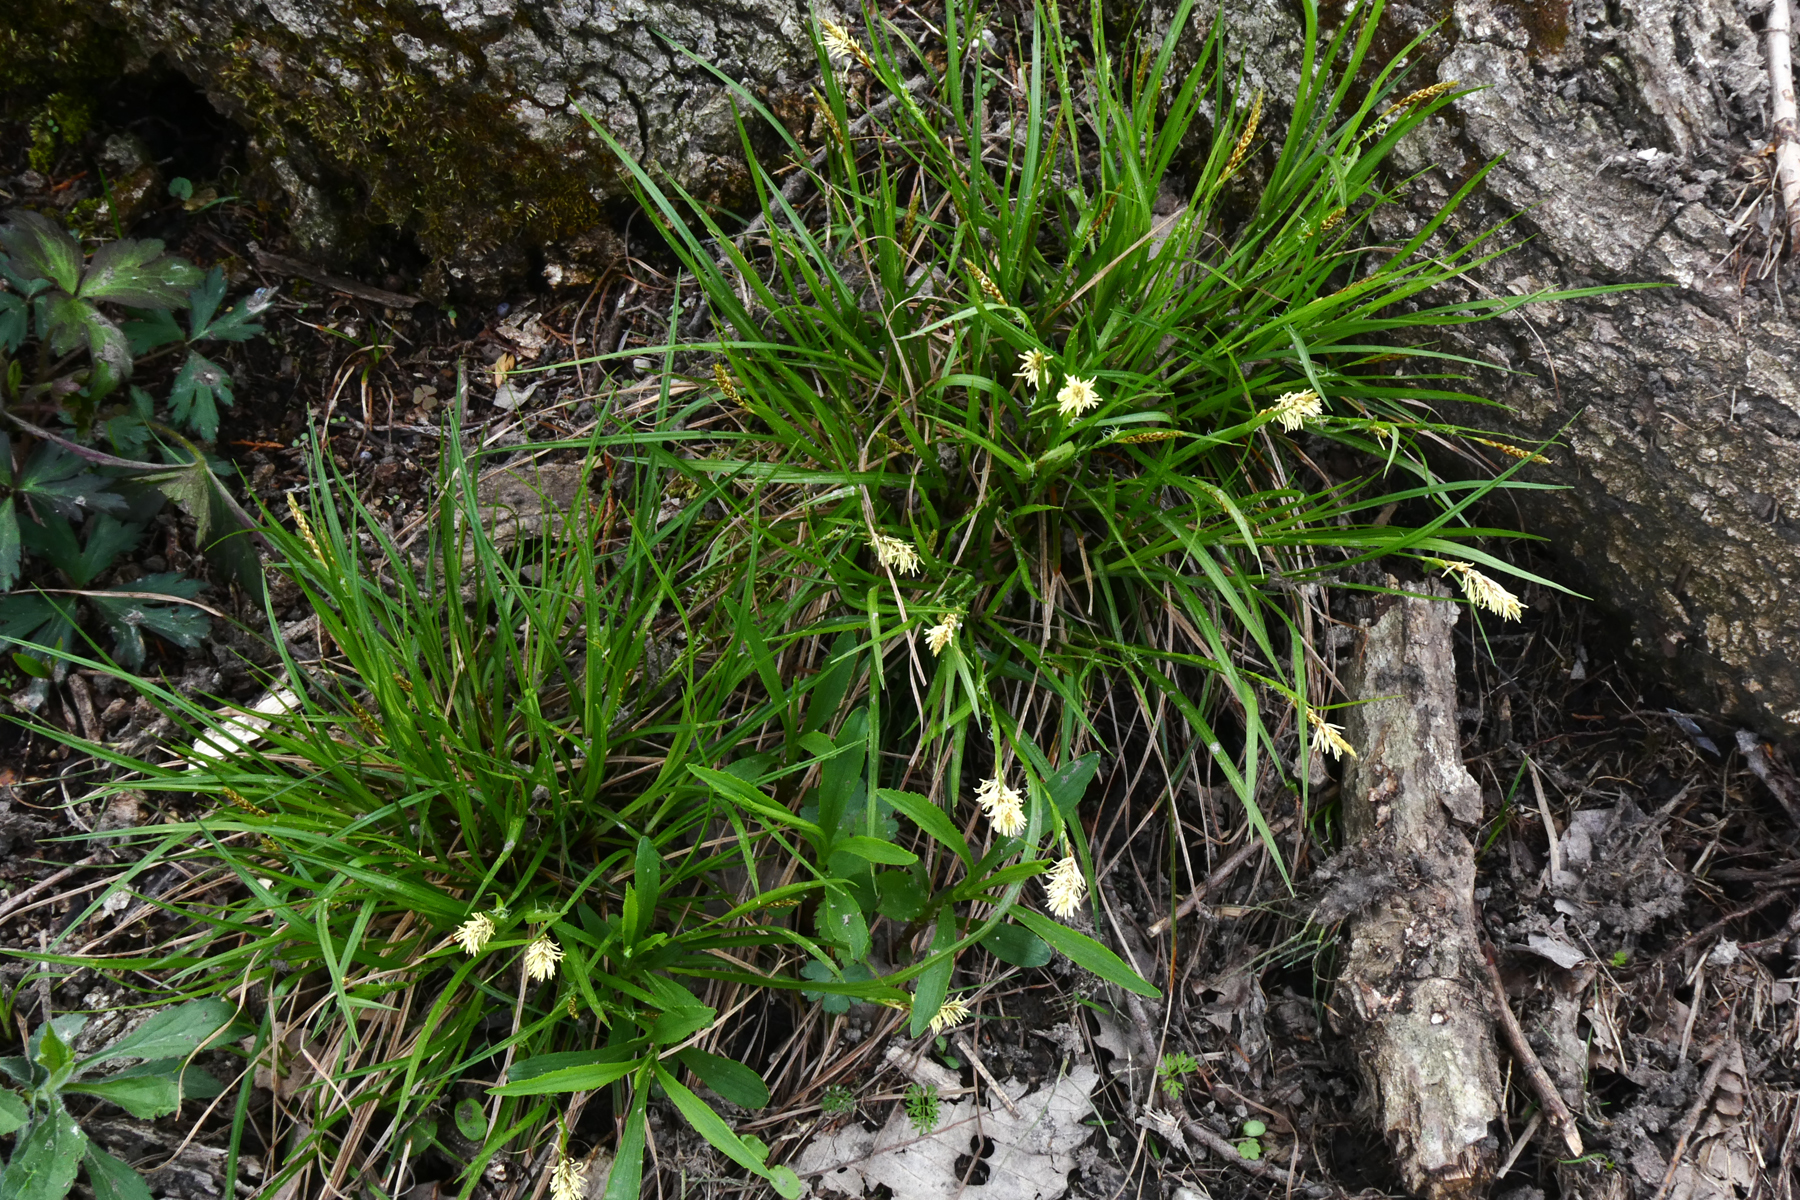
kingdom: Plantae
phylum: Tracheophyta
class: Liliopsida
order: Poales
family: Cyperaceae
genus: Carex
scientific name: Carex pensylvanica
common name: Common oak sedge
